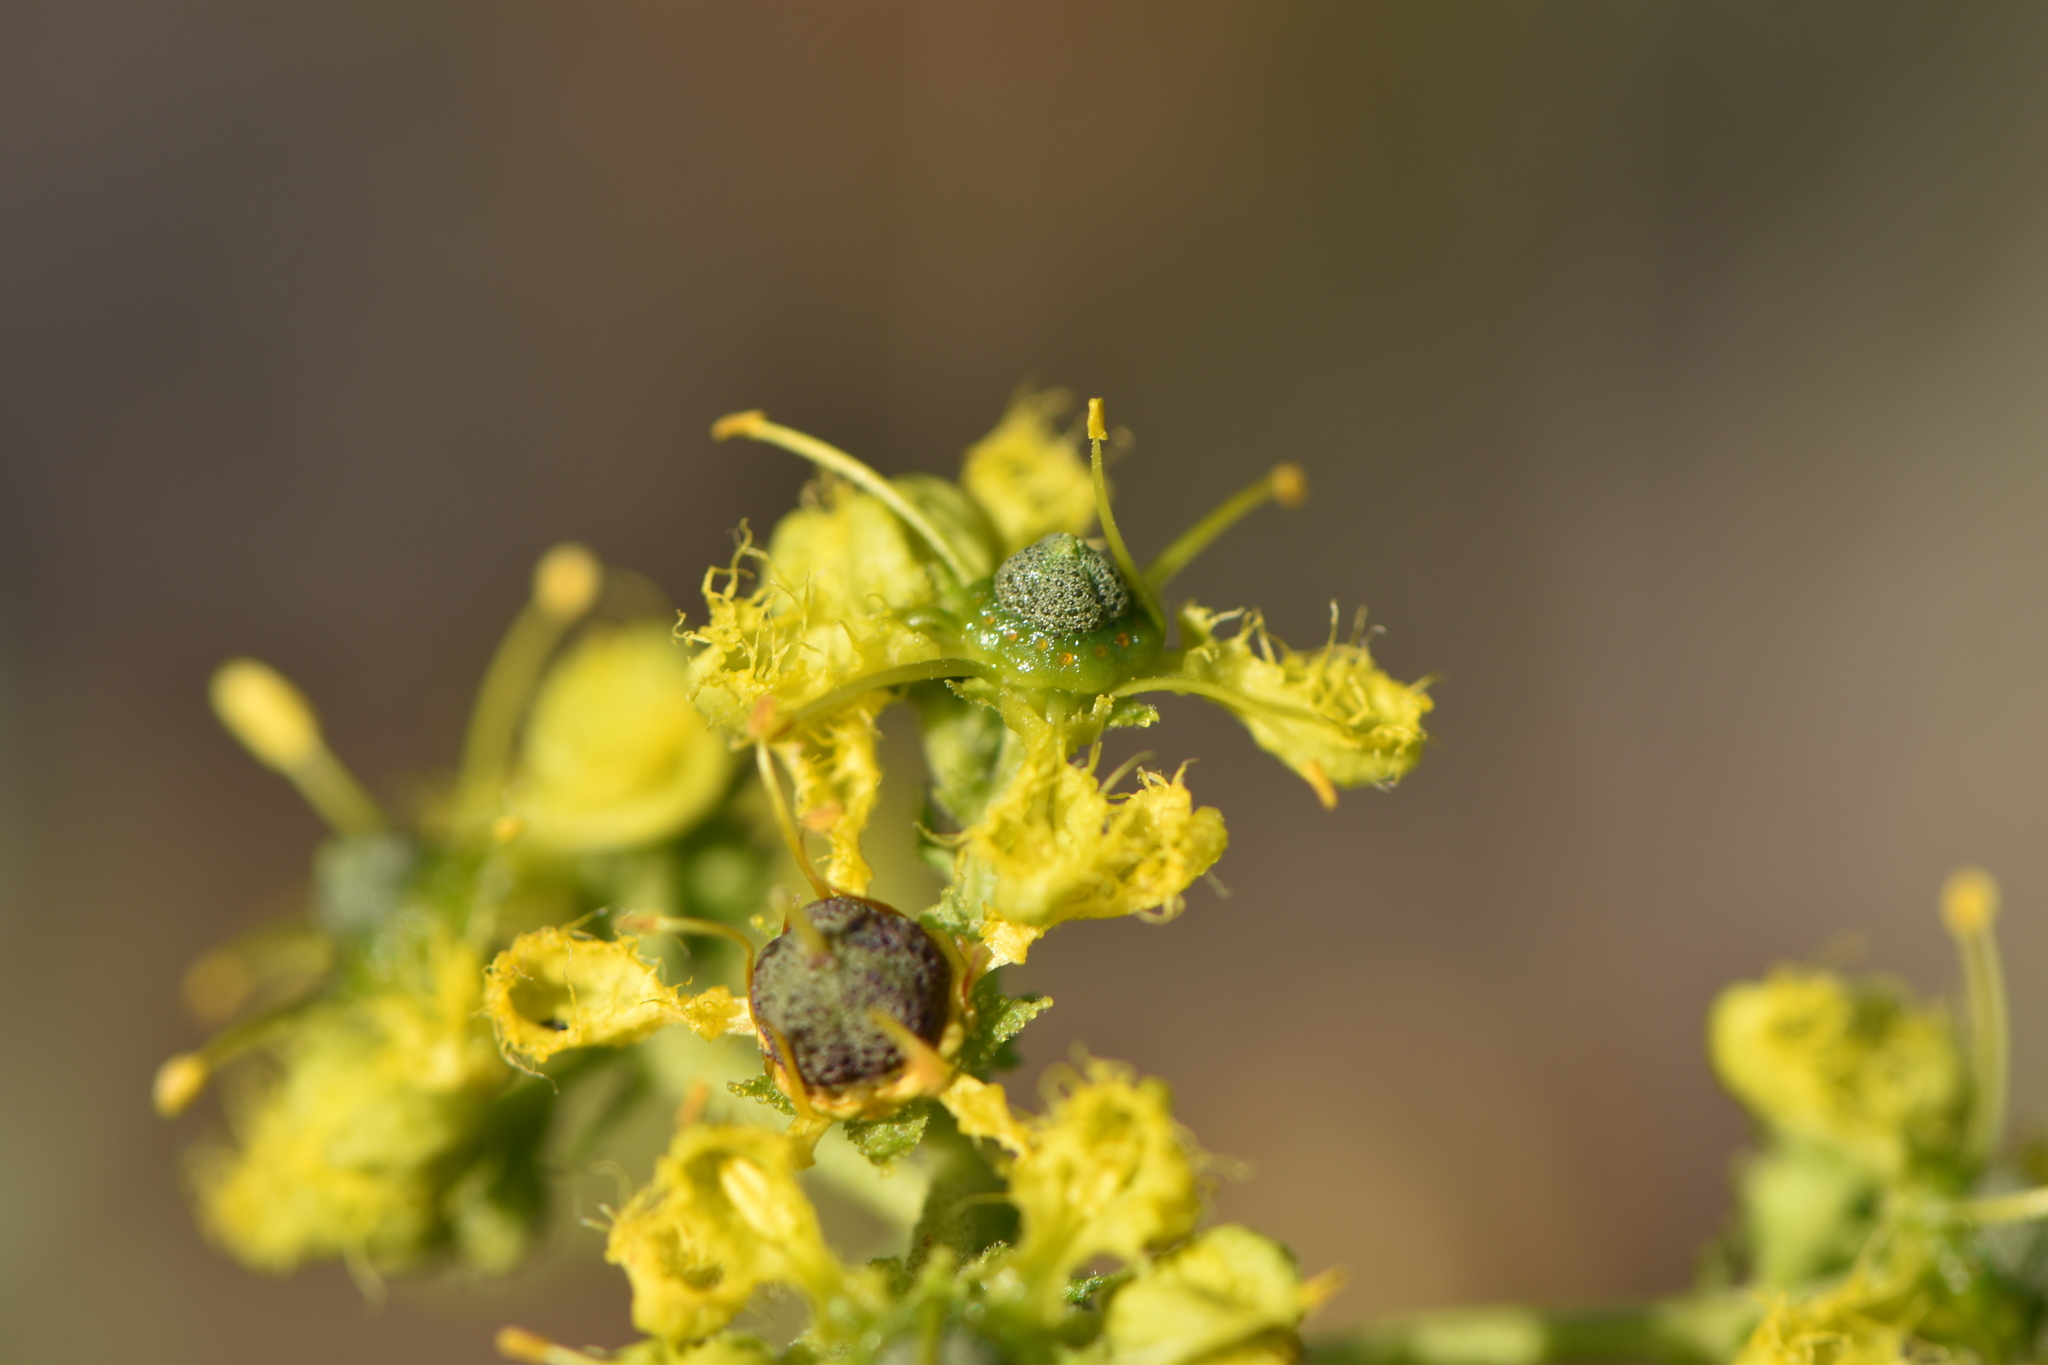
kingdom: Plantae
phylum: Tracheophyta
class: Magnoliopsida
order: Sapindales
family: Rutaceae
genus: Ruta
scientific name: Ruta angustifolia
